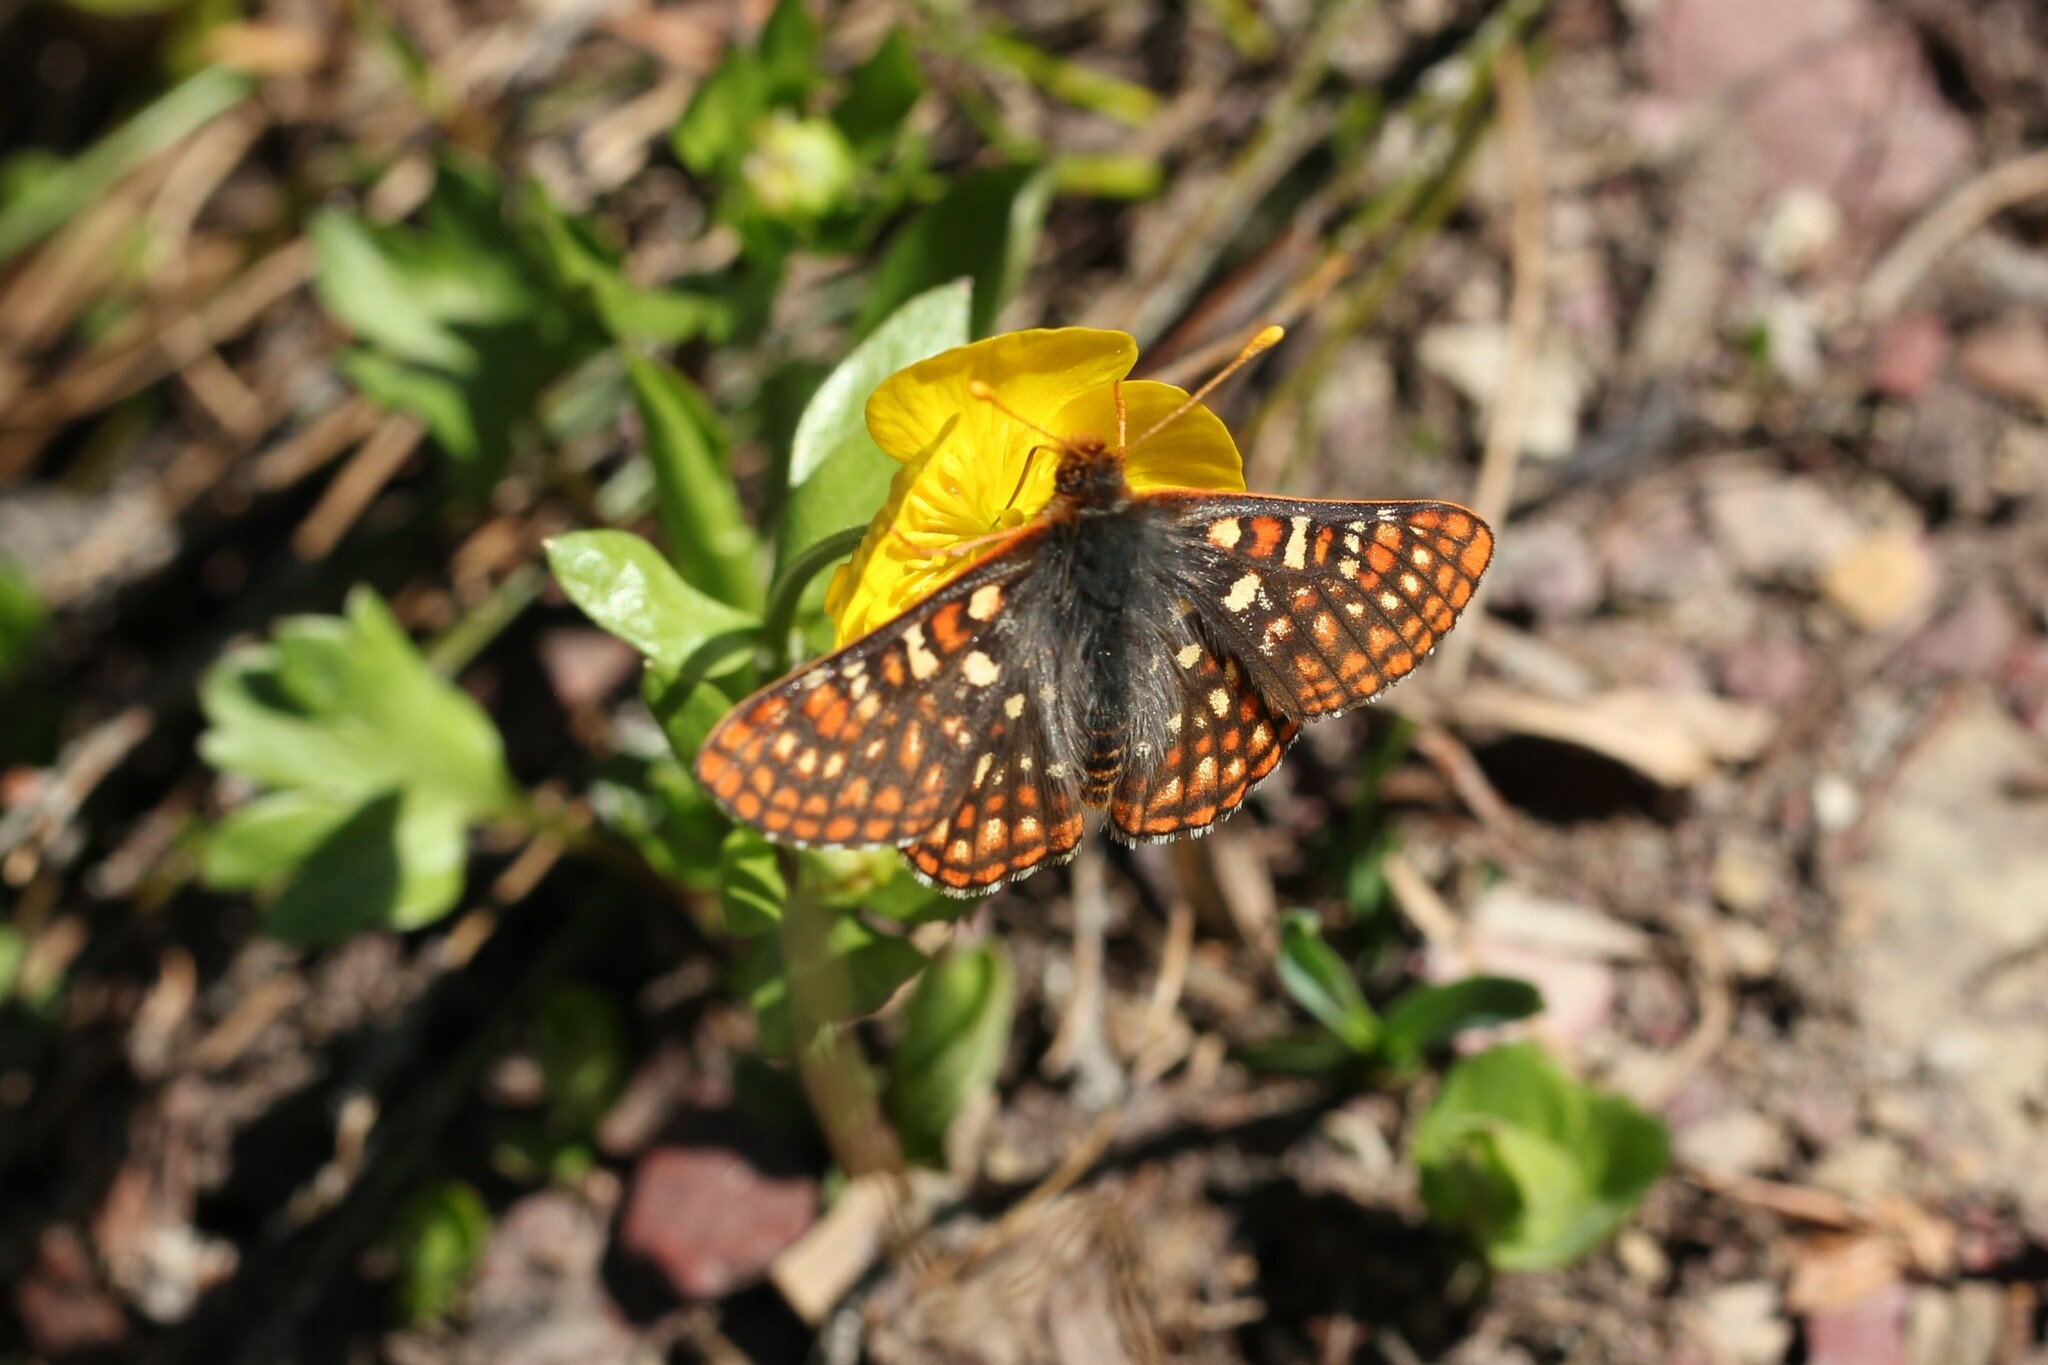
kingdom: Animalia
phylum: Arthropoda
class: Insecta
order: Lepidoptera
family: Nymphalidae
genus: Occidryas
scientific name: Occidryas anicia
